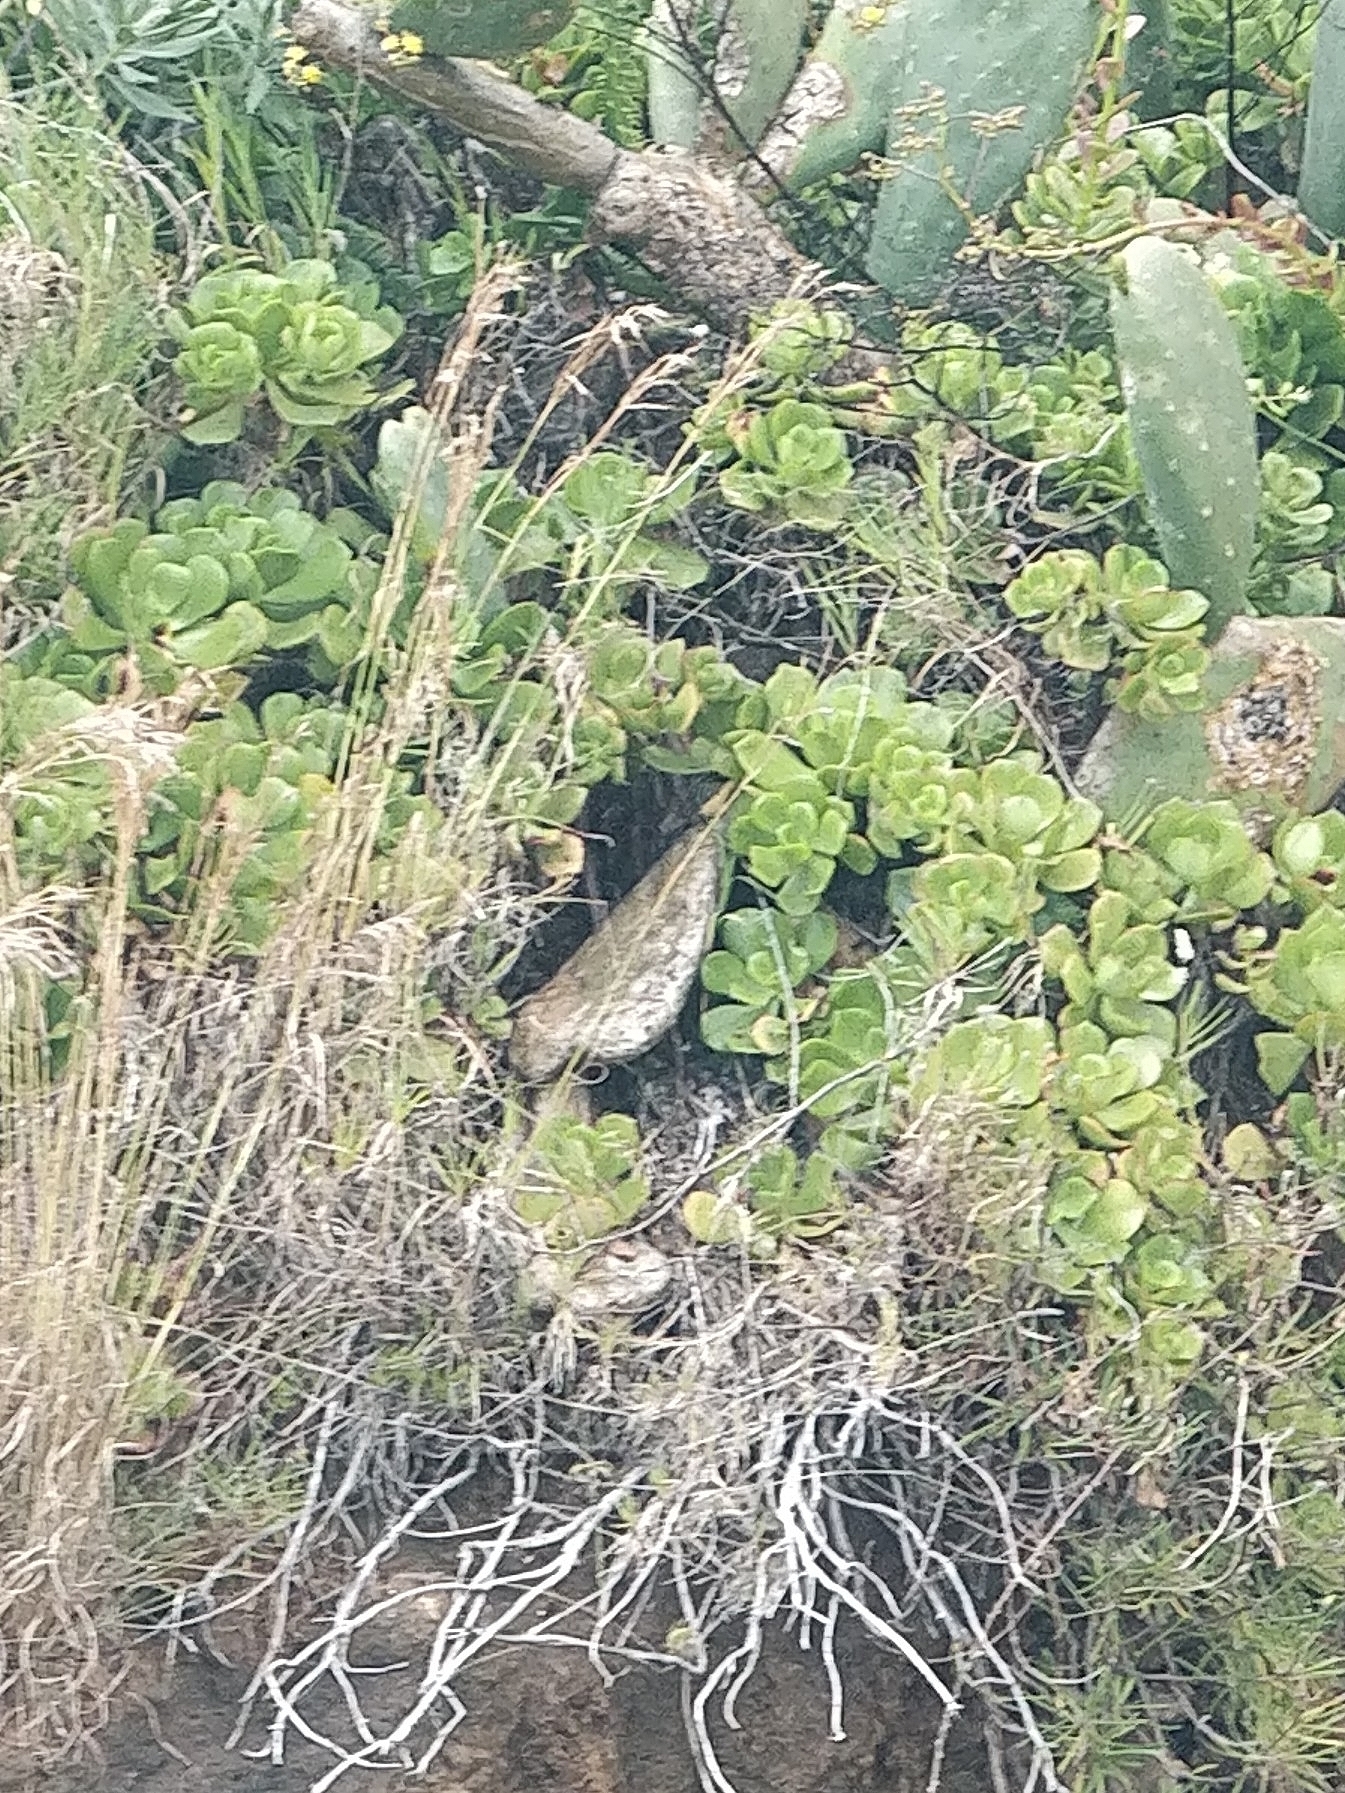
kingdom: Plantae
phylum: Tracheophyta
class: Magnoliopsida
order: Saxifragales
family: Crassulaceae
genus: Aeonium
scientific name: Aeonium glutinosum
